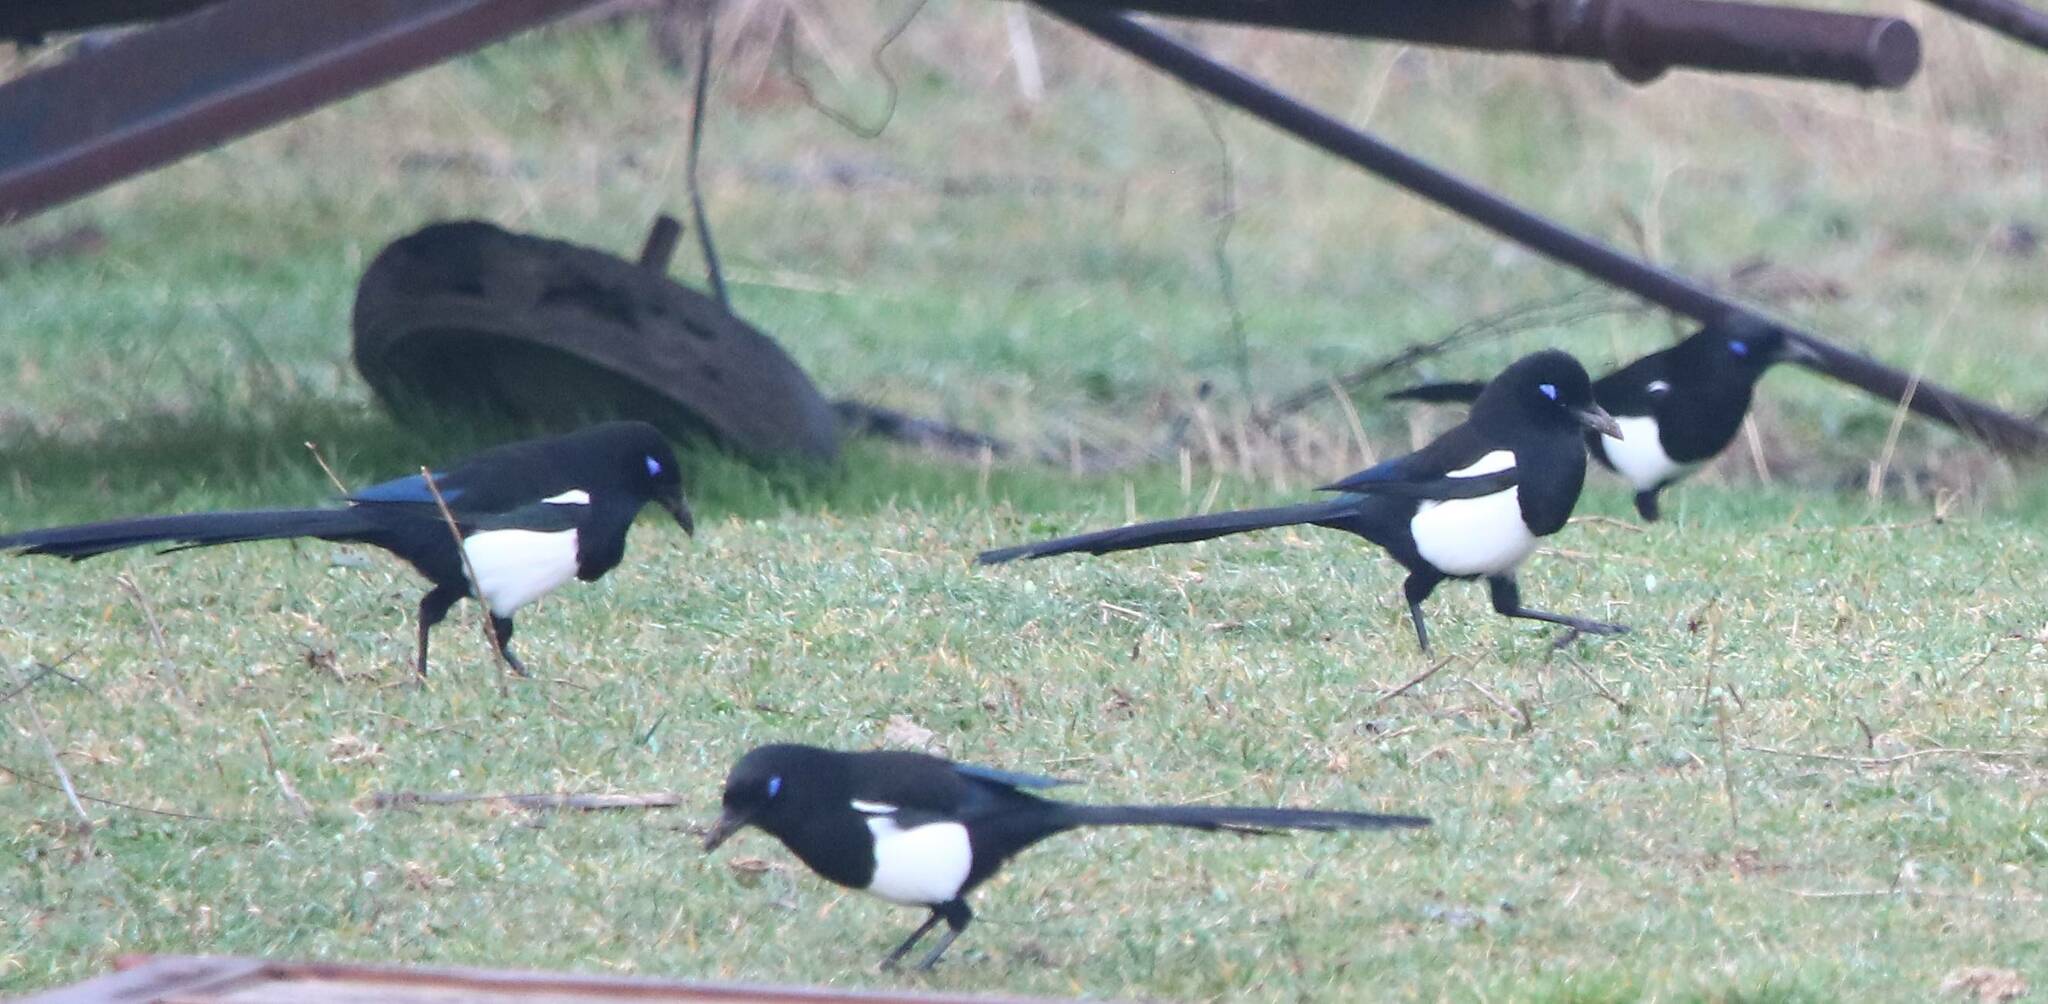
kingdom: Animalia
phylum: Chordata
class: Aves
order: Passeriformes
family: Corvidae
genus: Pica
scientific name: Pica mauritanica
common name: Maghreb magpie
